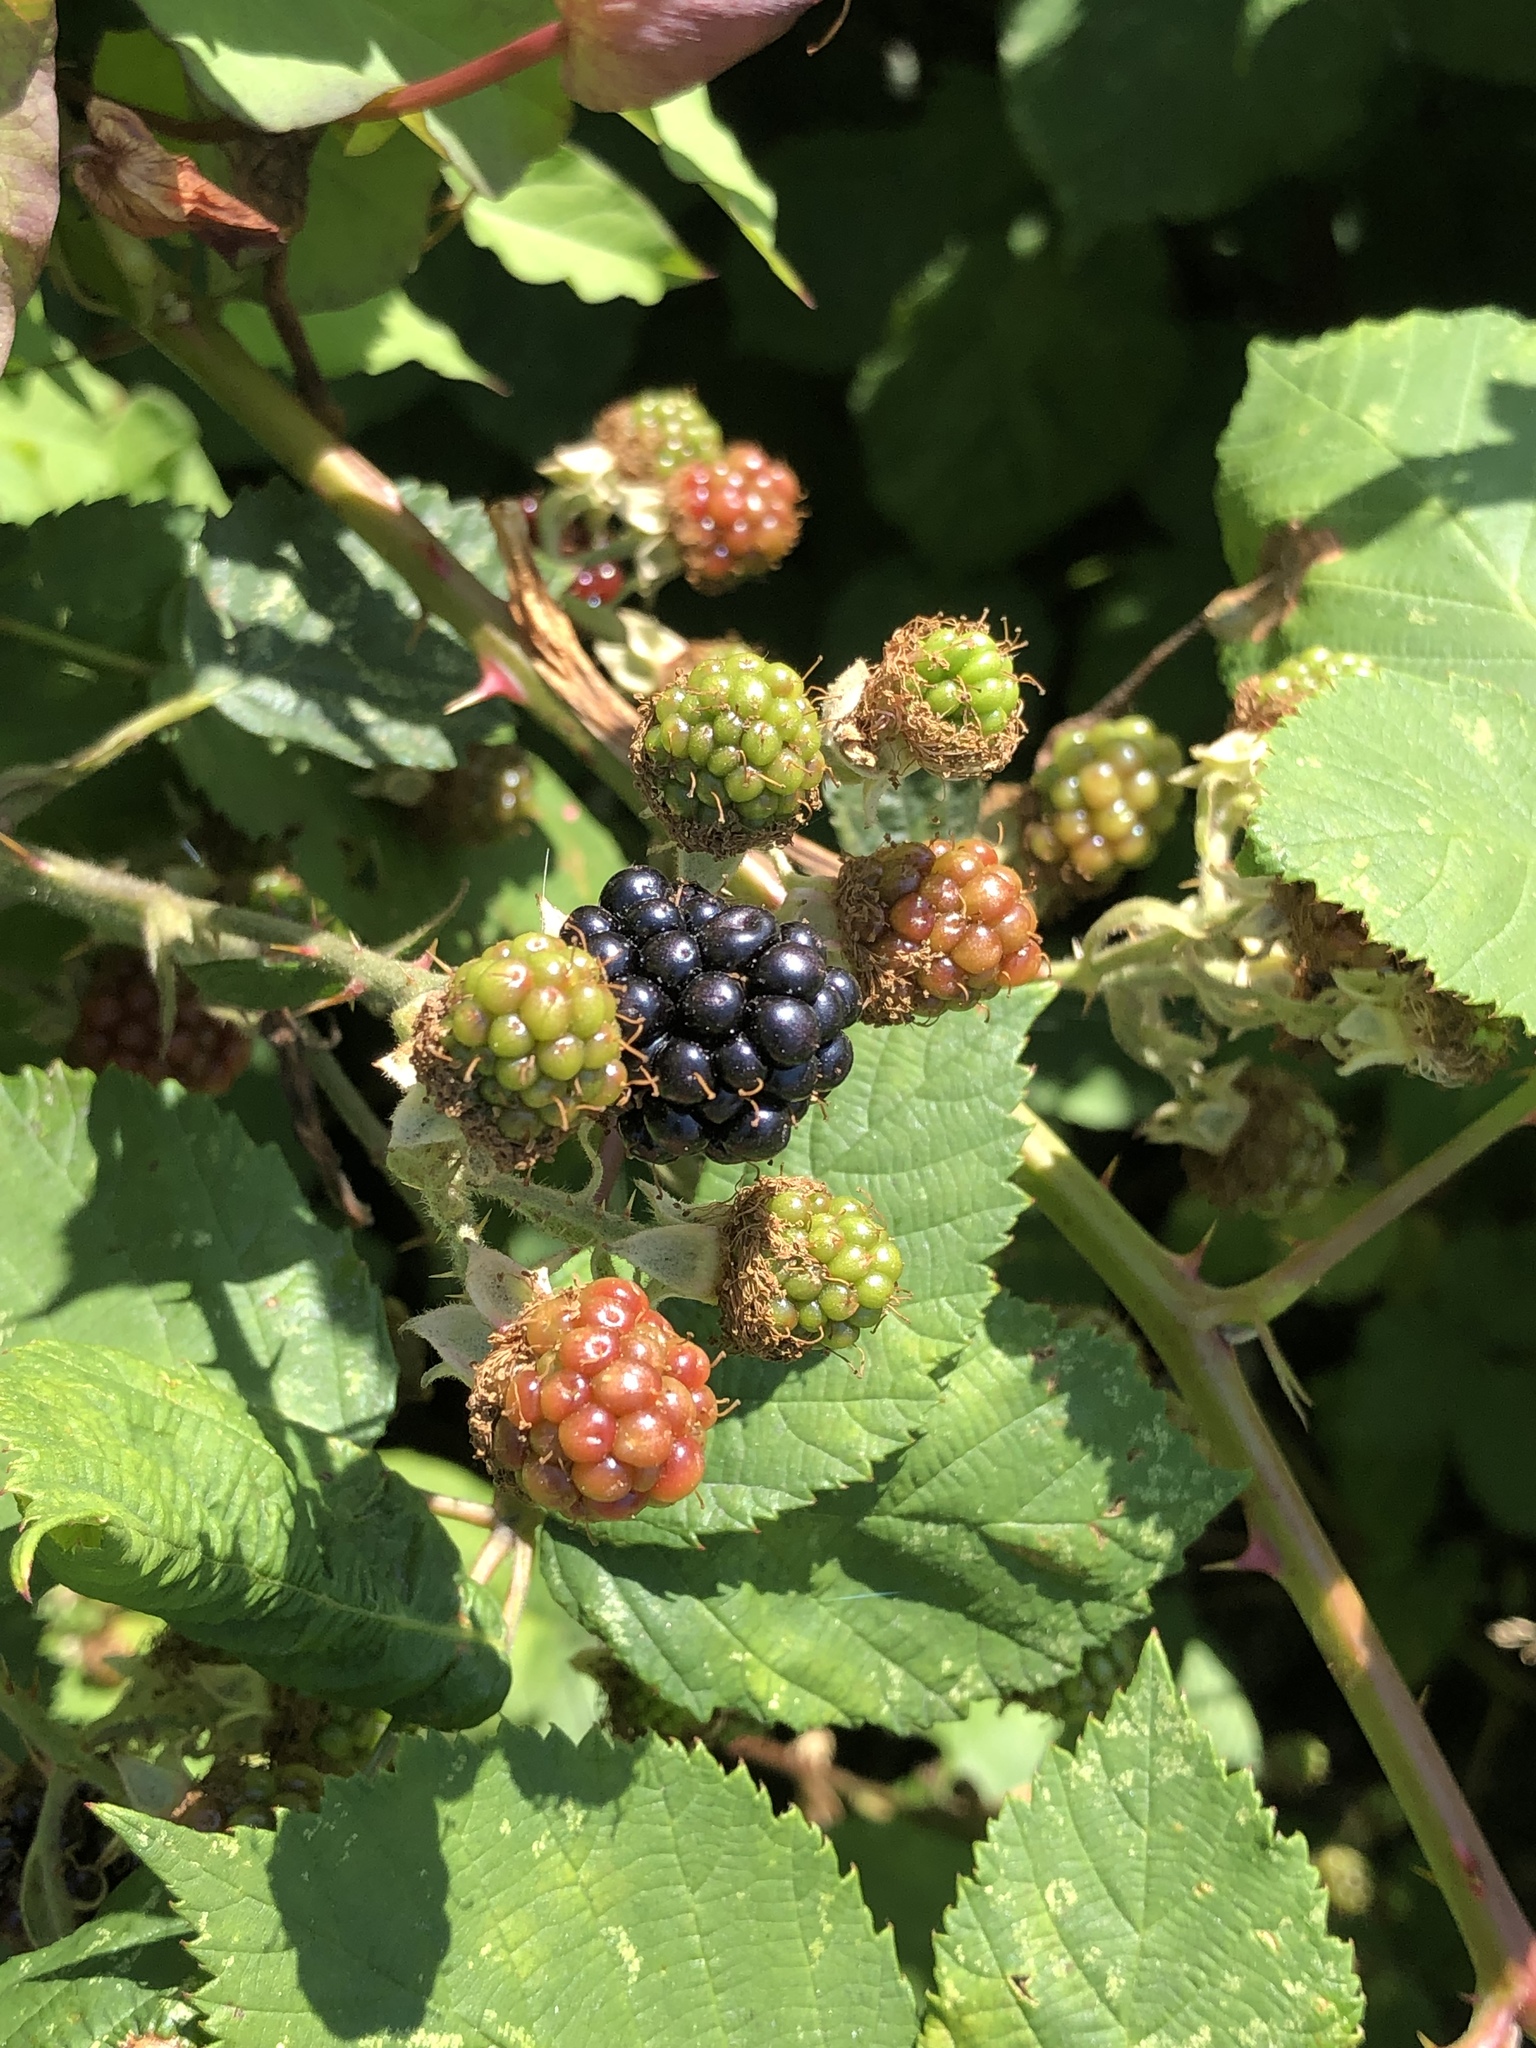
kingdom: Plantae
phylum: Tracheophyta
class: Magnoliopsida
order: Rosales
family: Rosaceae
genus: Rubus
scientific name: Rubus armeniacus
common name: Himalayan blackberry
